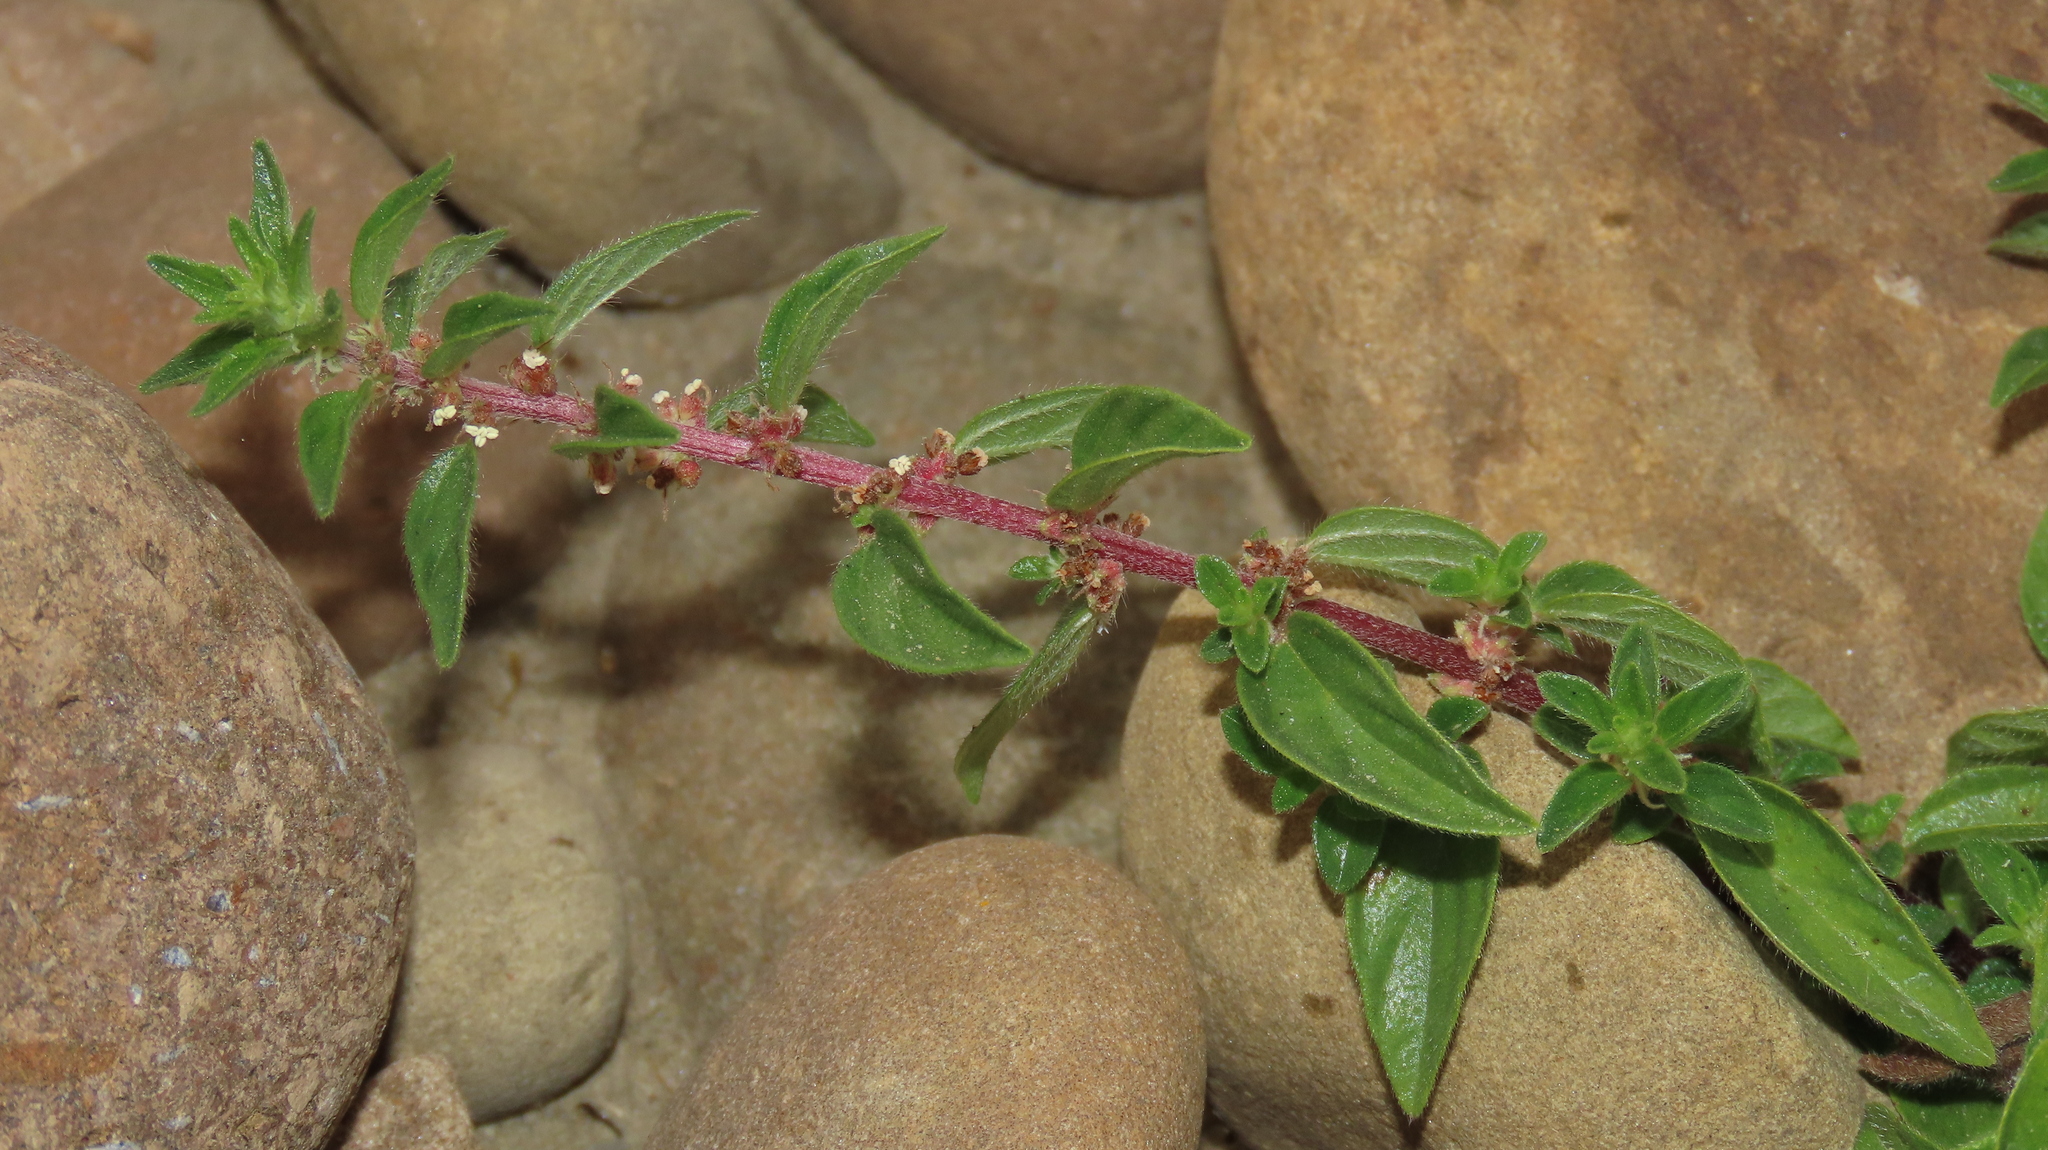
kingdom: Plantae
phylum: Tracheophyta
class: Magnoliopsida
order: Rosales
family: Urticaceae
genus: Pouzolzia
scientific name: Pouzolzia zeylanica
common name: Graceful pouzolzsbush
